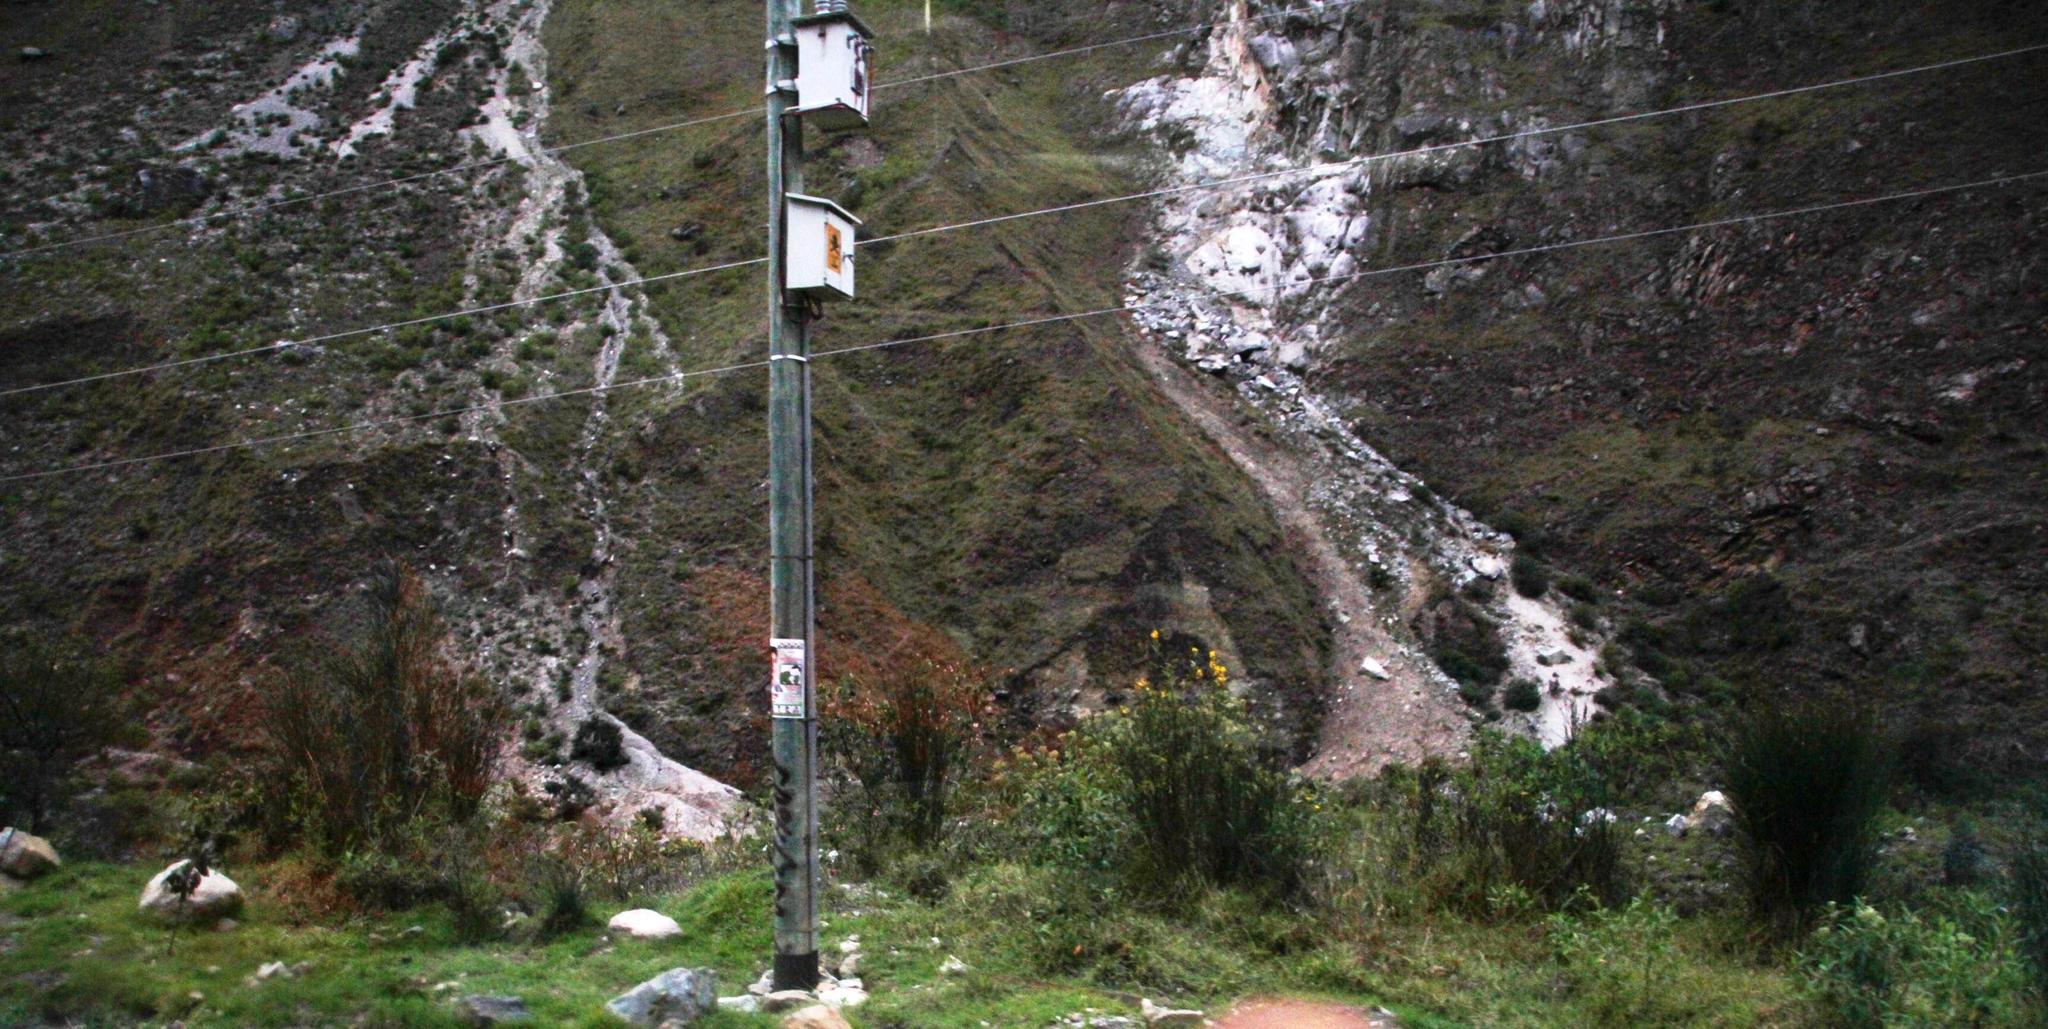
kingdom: Plantae
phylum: Tracheophyta
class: Magnoliopsida
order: Fabales
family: Fabaceae
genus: Spartium
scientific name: Spartium junceum
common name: Spanish broom
